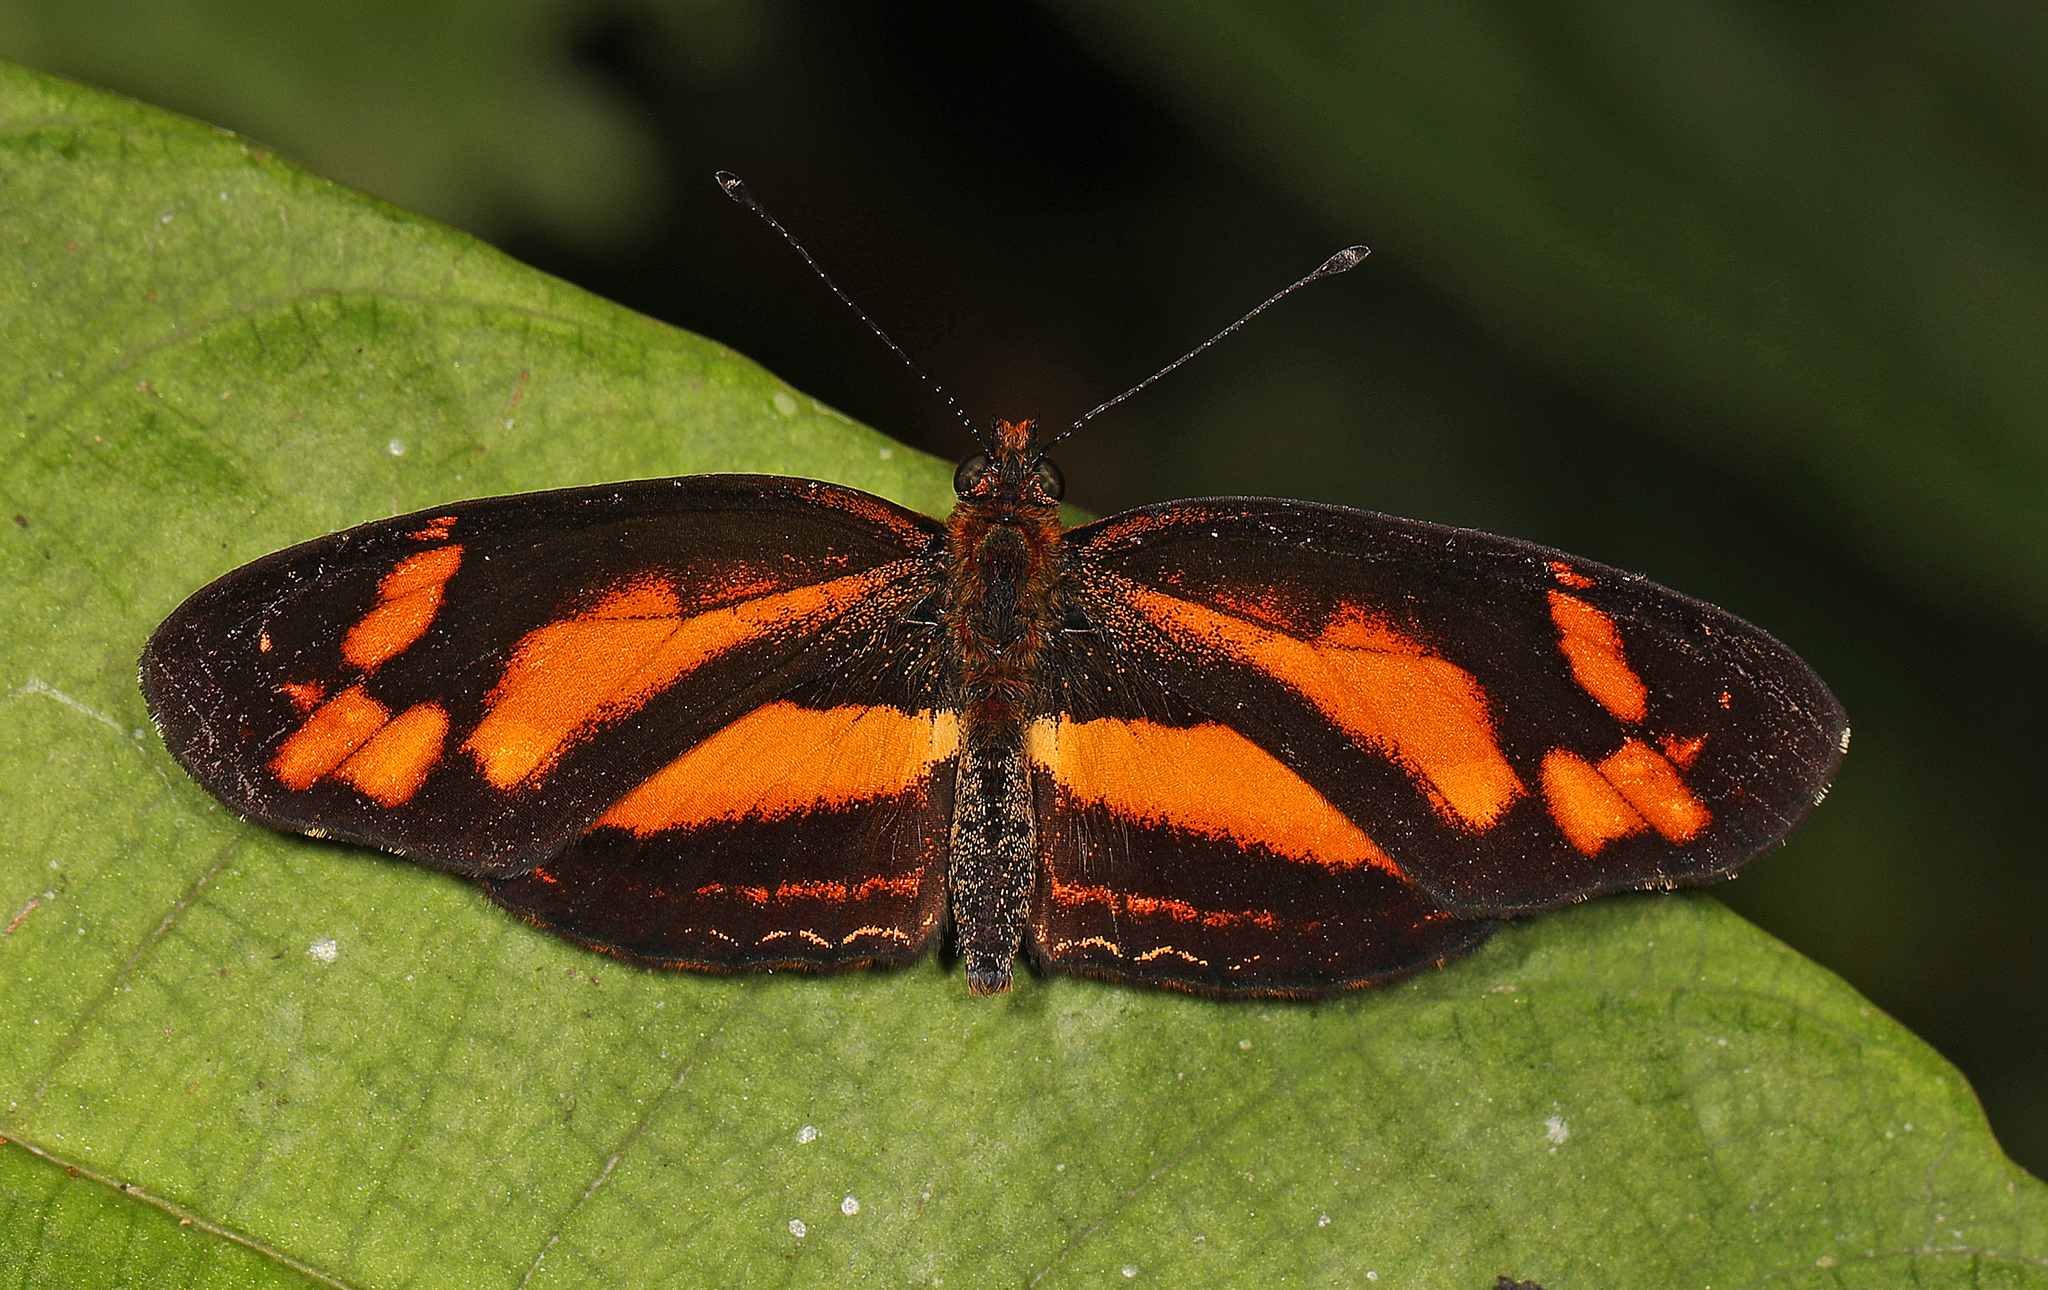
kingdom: Animalia
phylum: Arthropoda
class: Insecta
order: Lepidoptera
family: Nymphalidae
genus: Castilia
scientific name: Castilia eranites
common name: Smudged crescent
